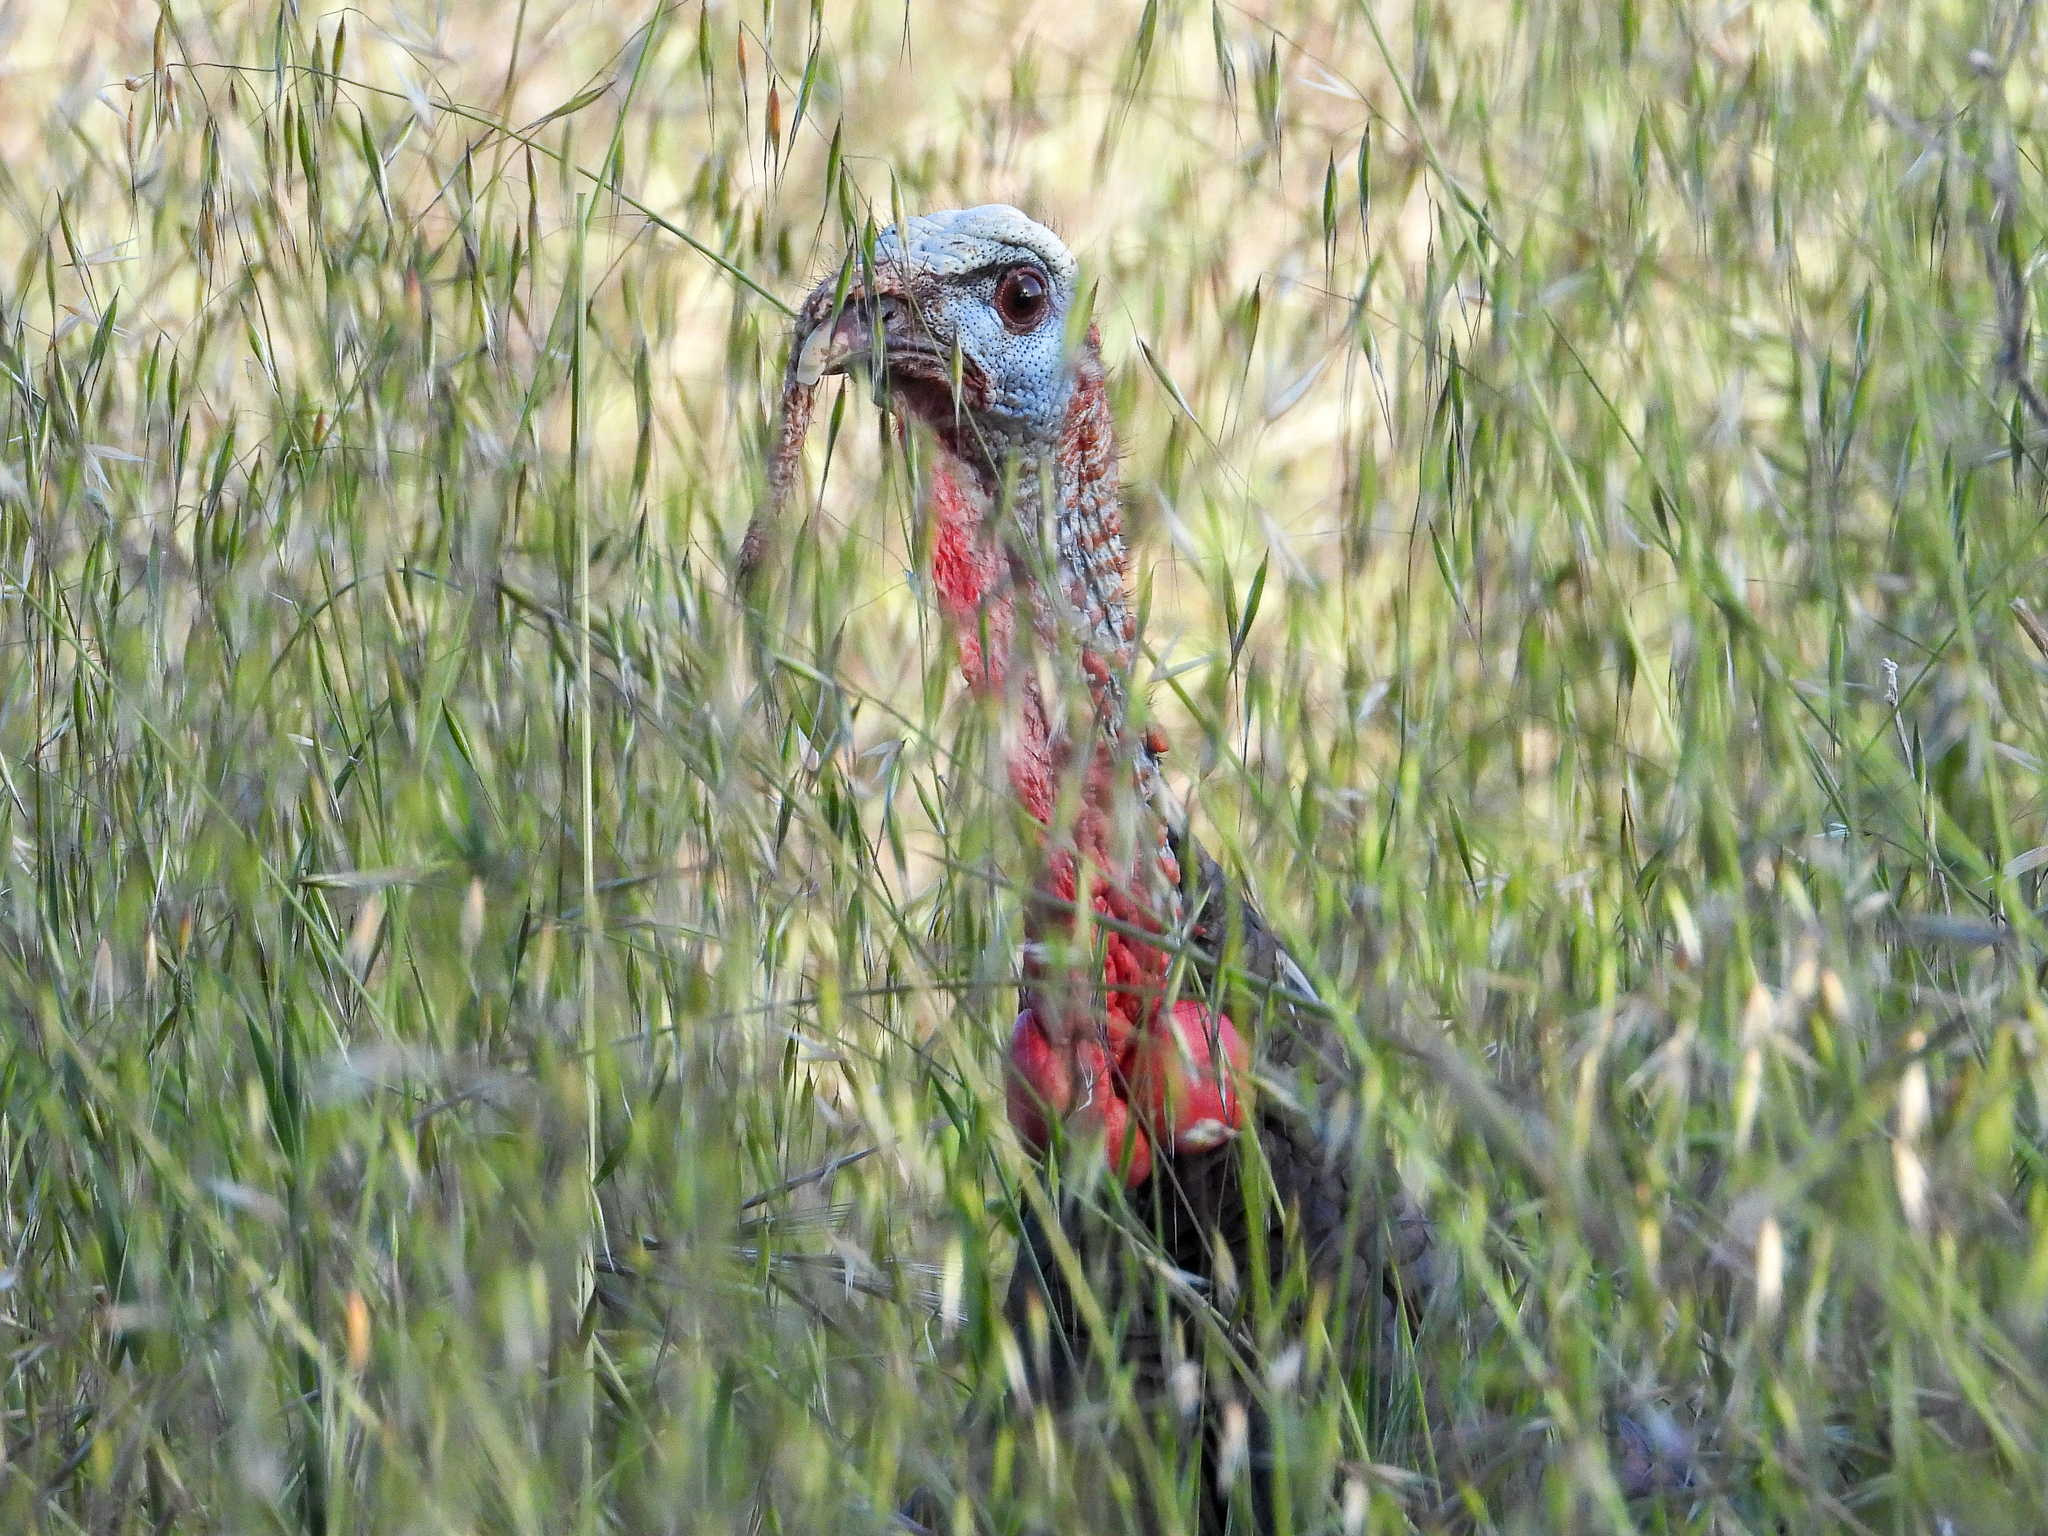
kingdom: Animalia
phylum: Chordata
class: Aves
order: Galliformes
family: Phasianidae
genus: Meleagris
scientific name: Meleagris gallopavo
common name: Wild turkey
